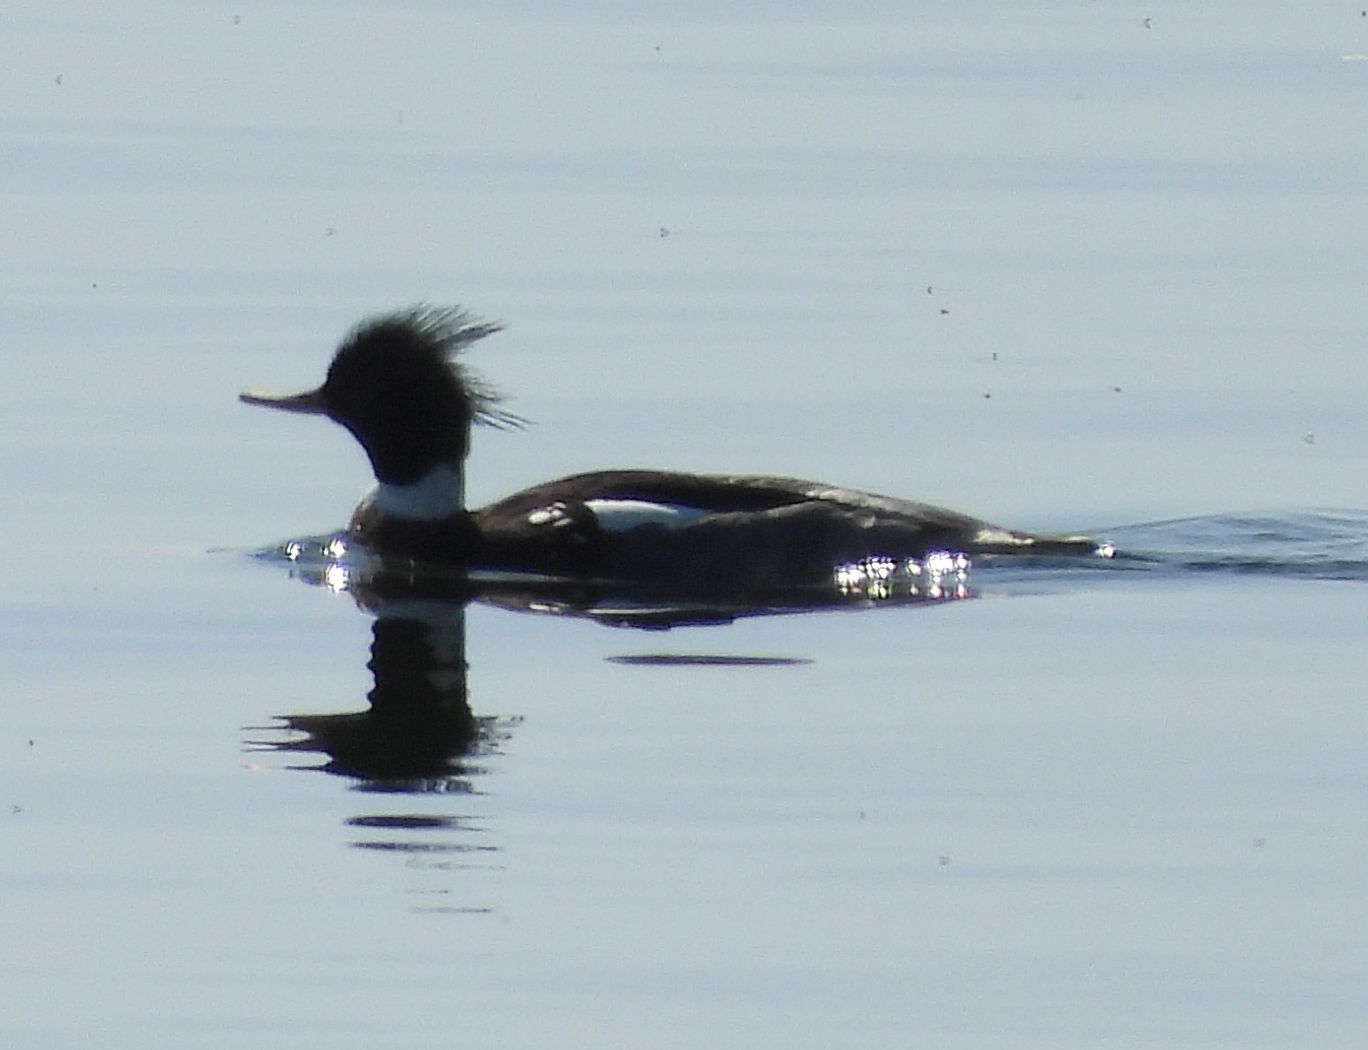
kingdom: Animalia
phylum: Chordata
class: Aves
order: Anseriformes
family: Anatidae
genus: Mergus
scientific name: Mergus serrator
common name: Red-breasted merganser
